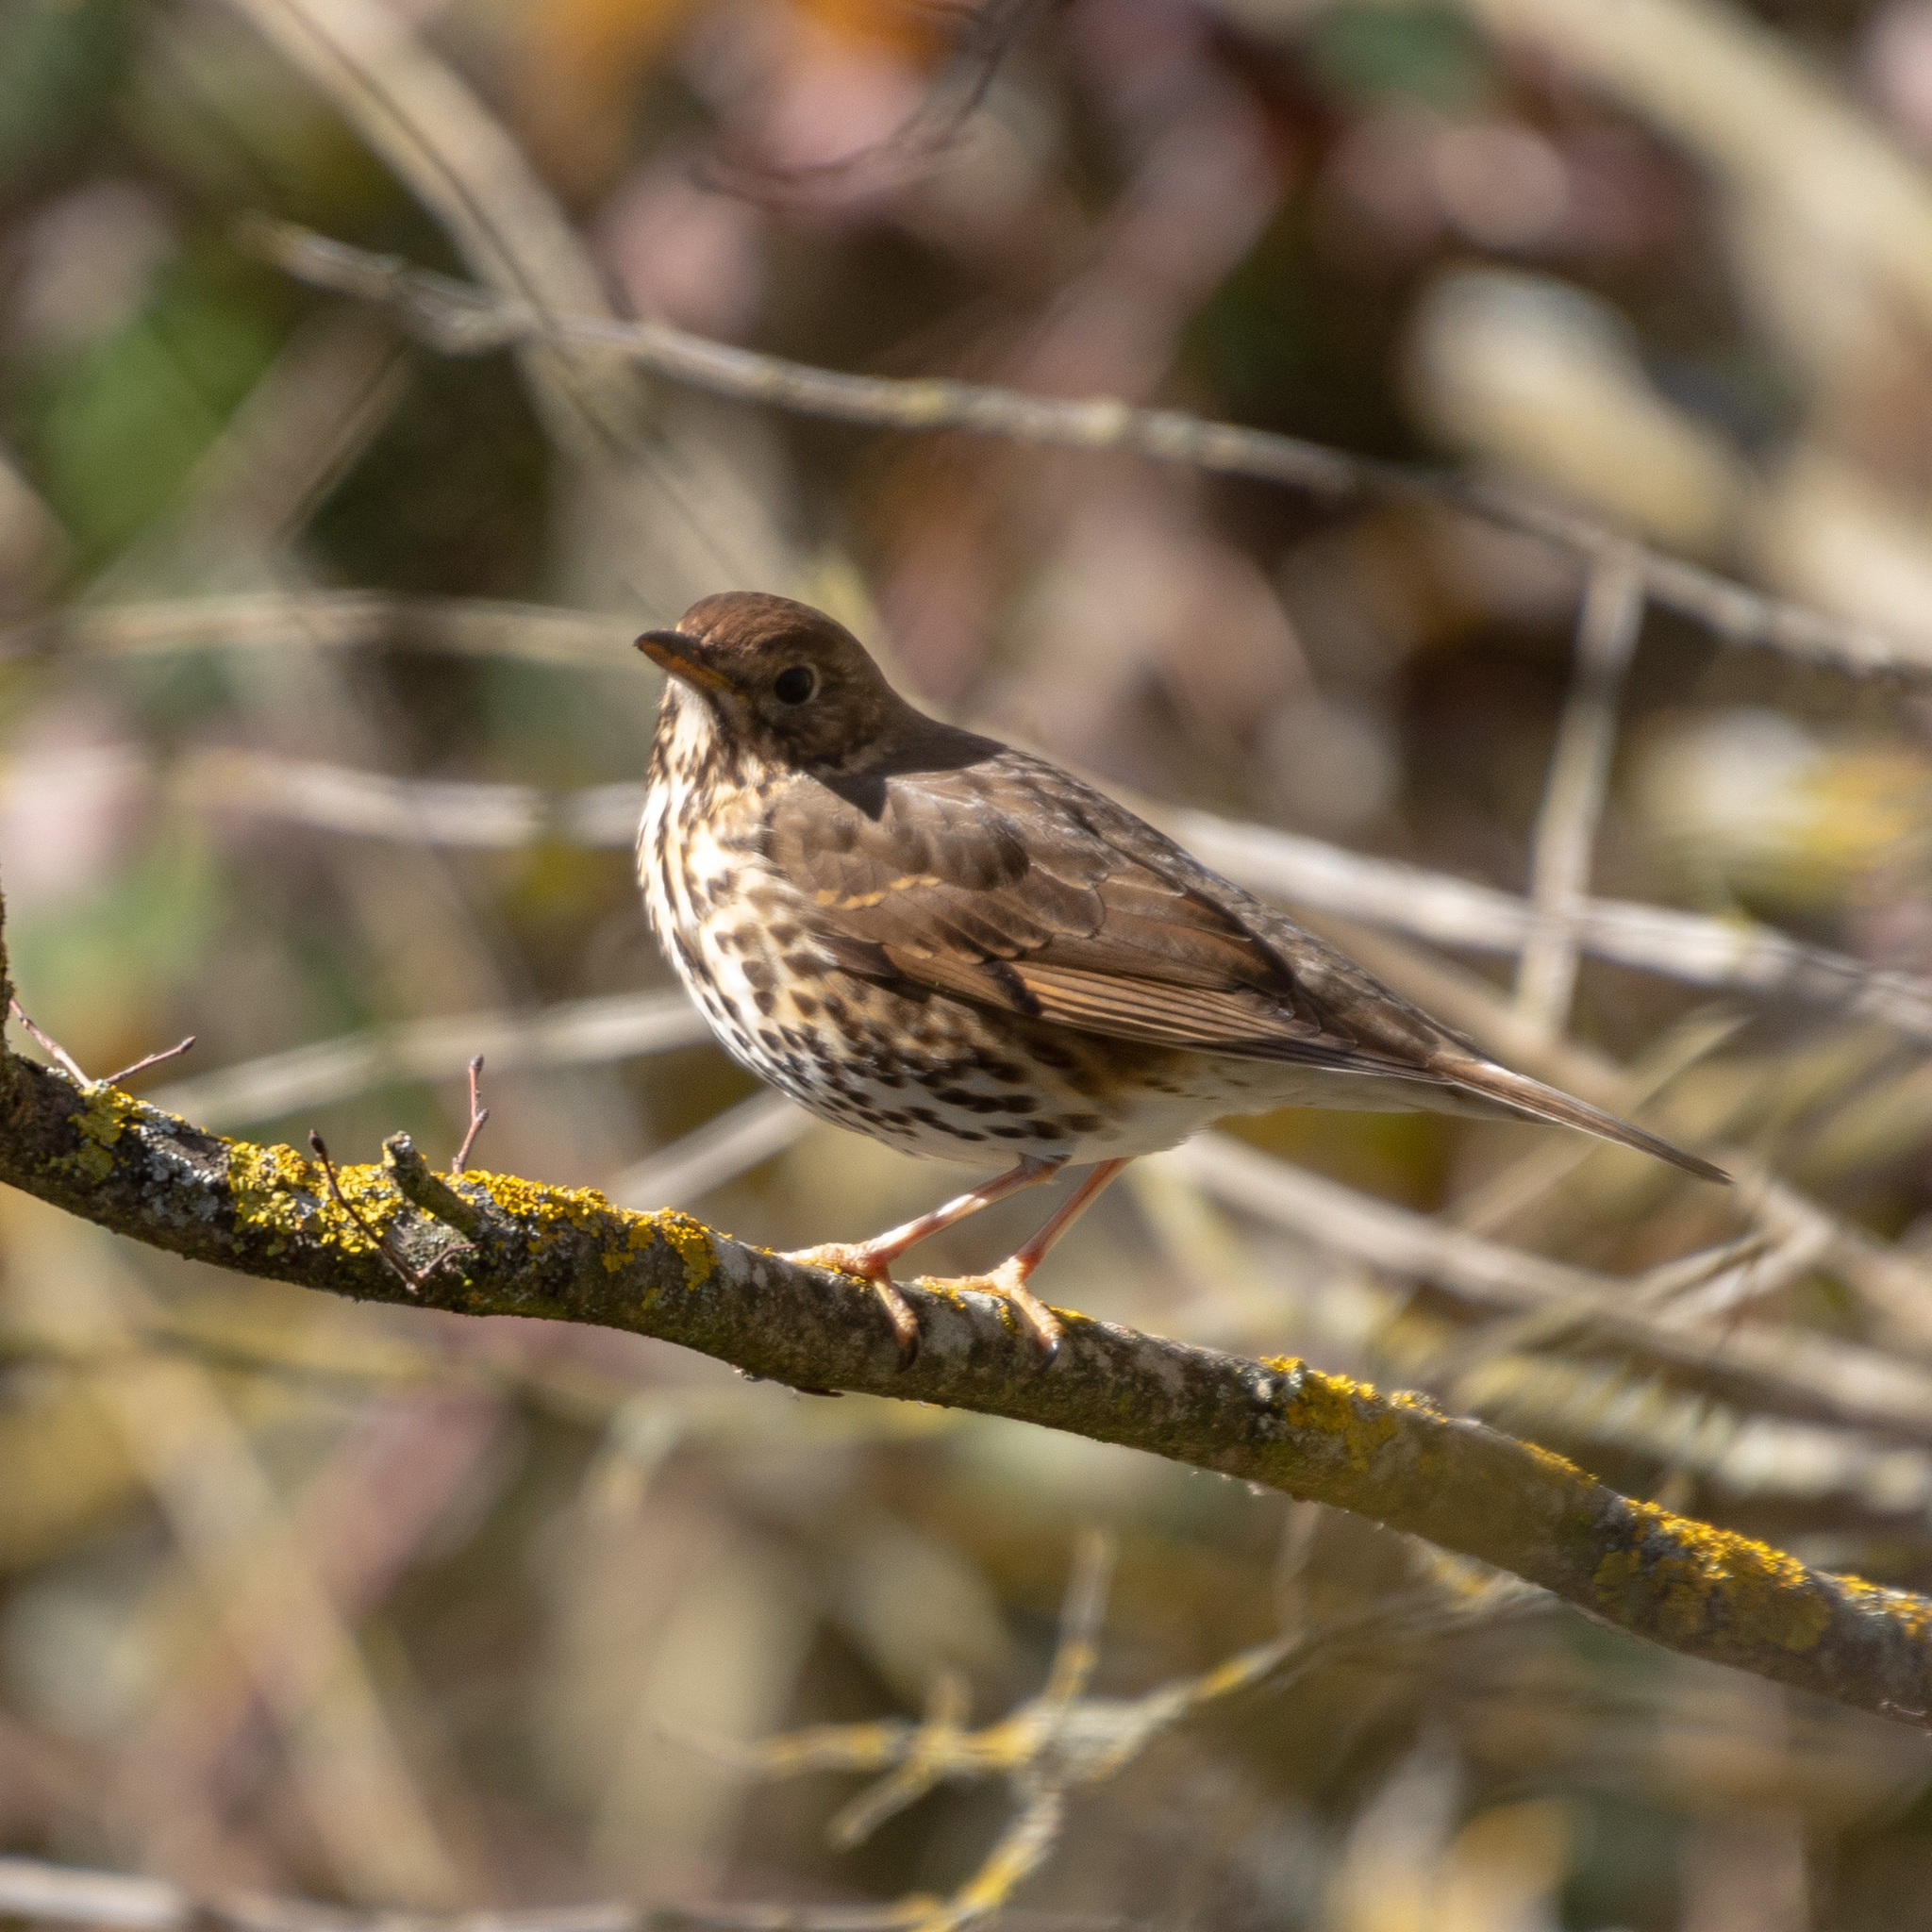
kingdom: Animalia
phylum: Chordata
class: Aves
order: Passeriformes
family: Turdidae
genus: Turdus
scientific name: Turdus philomelos
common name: Song thrush
